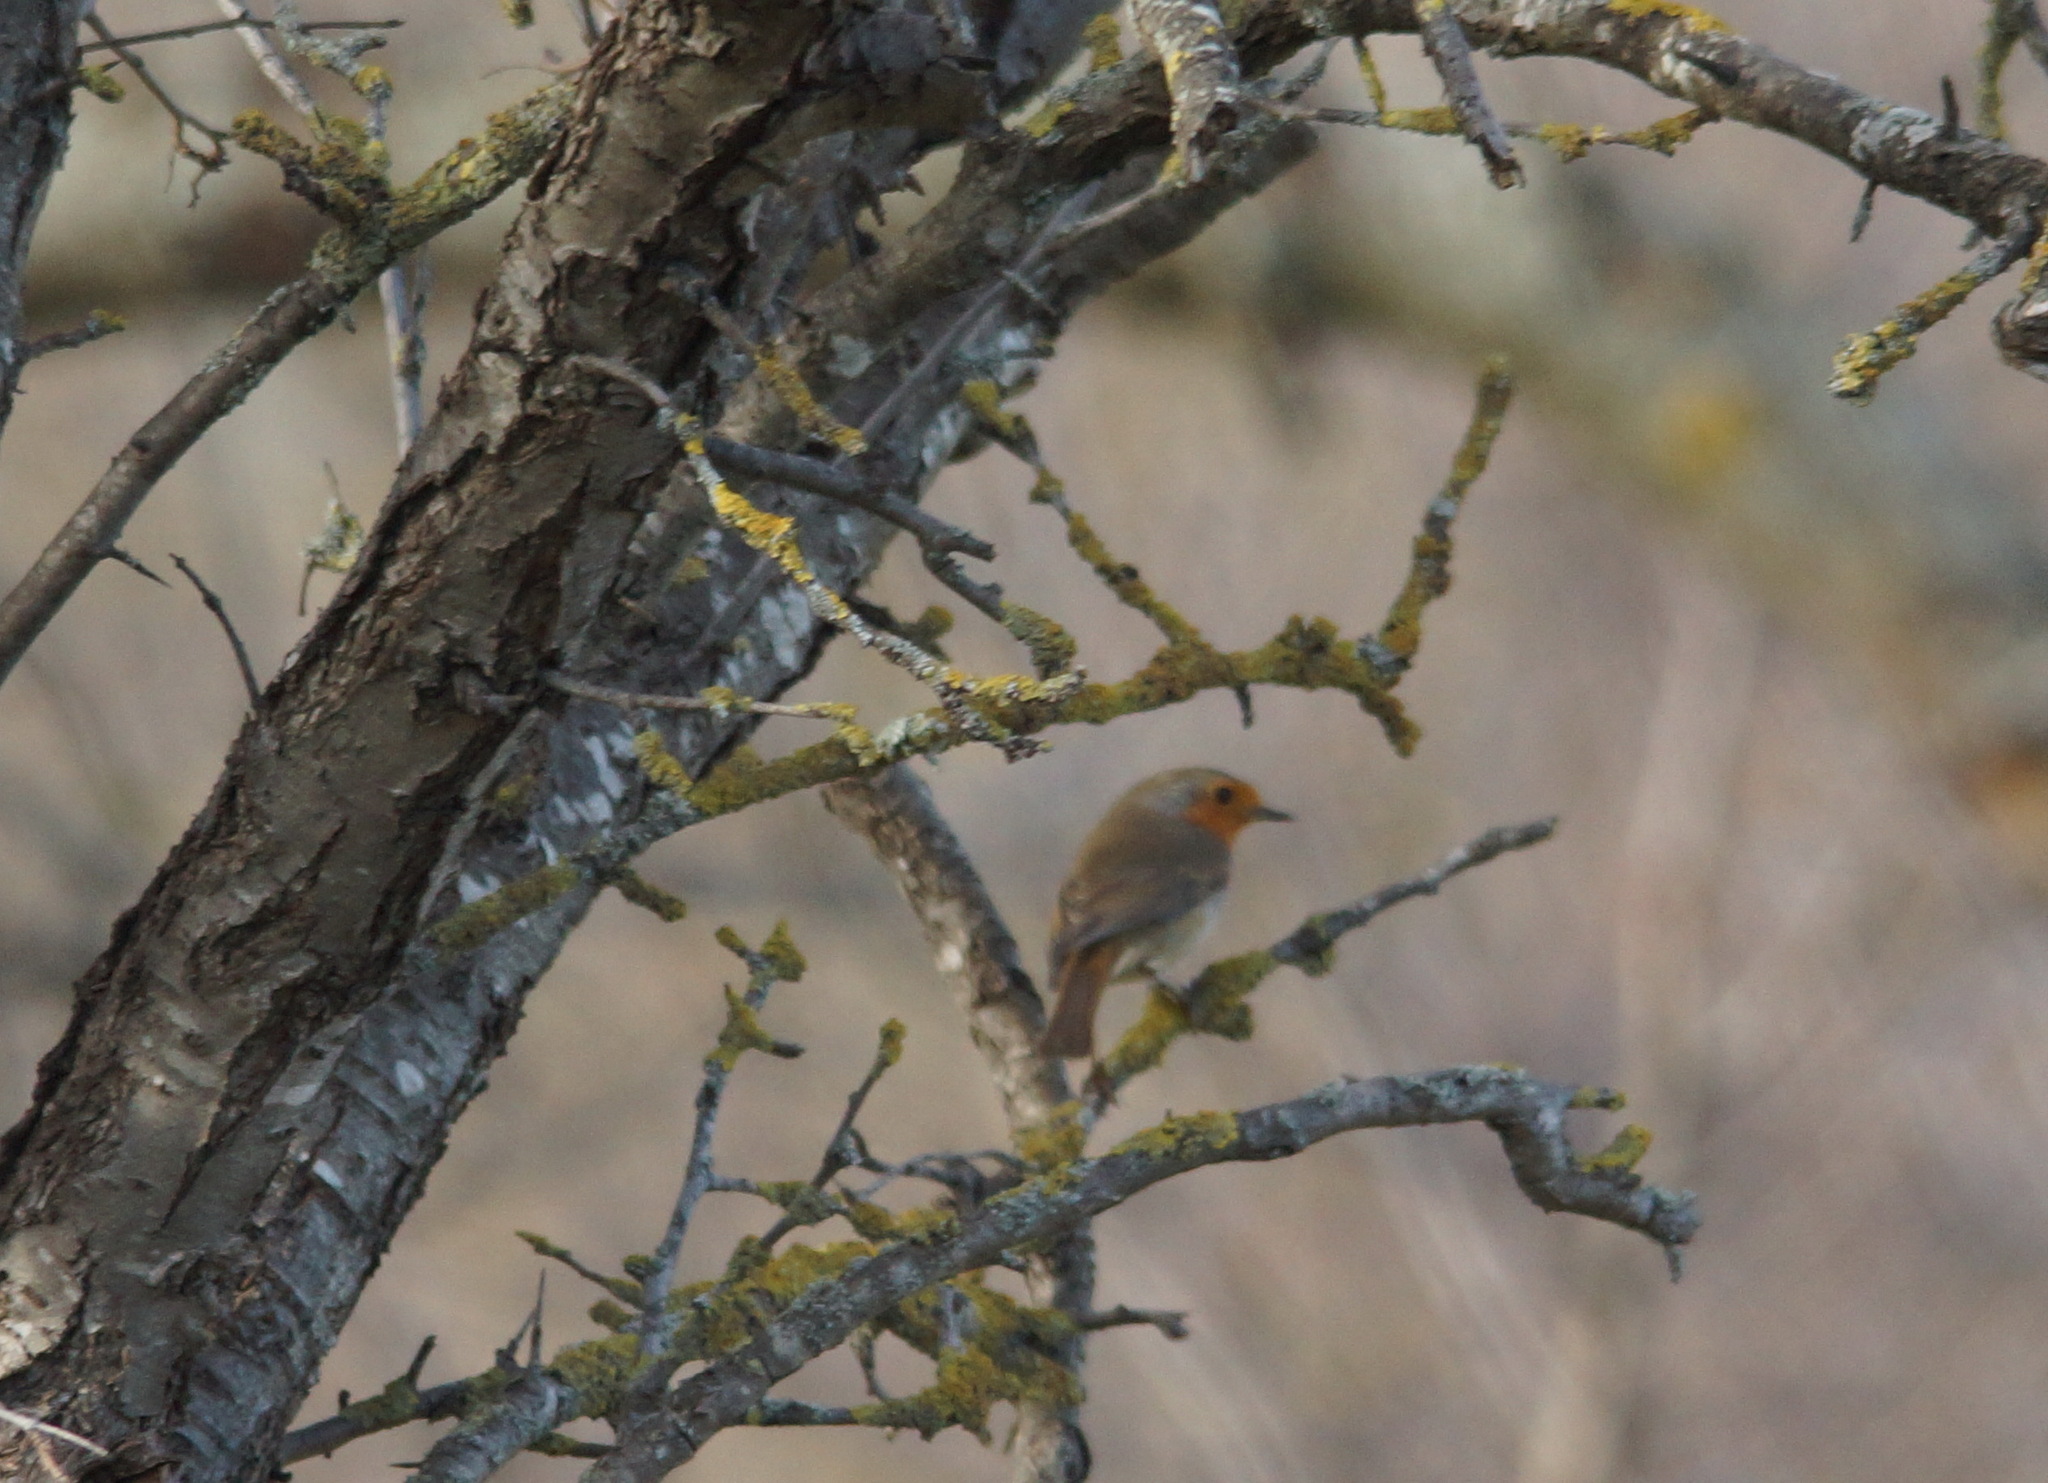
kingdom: Animalia
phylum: Chordata
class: Aves
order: Passeriformes
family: Muscicapidae
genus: Erithacus
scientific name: Erithacus rubecula
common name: European robin
